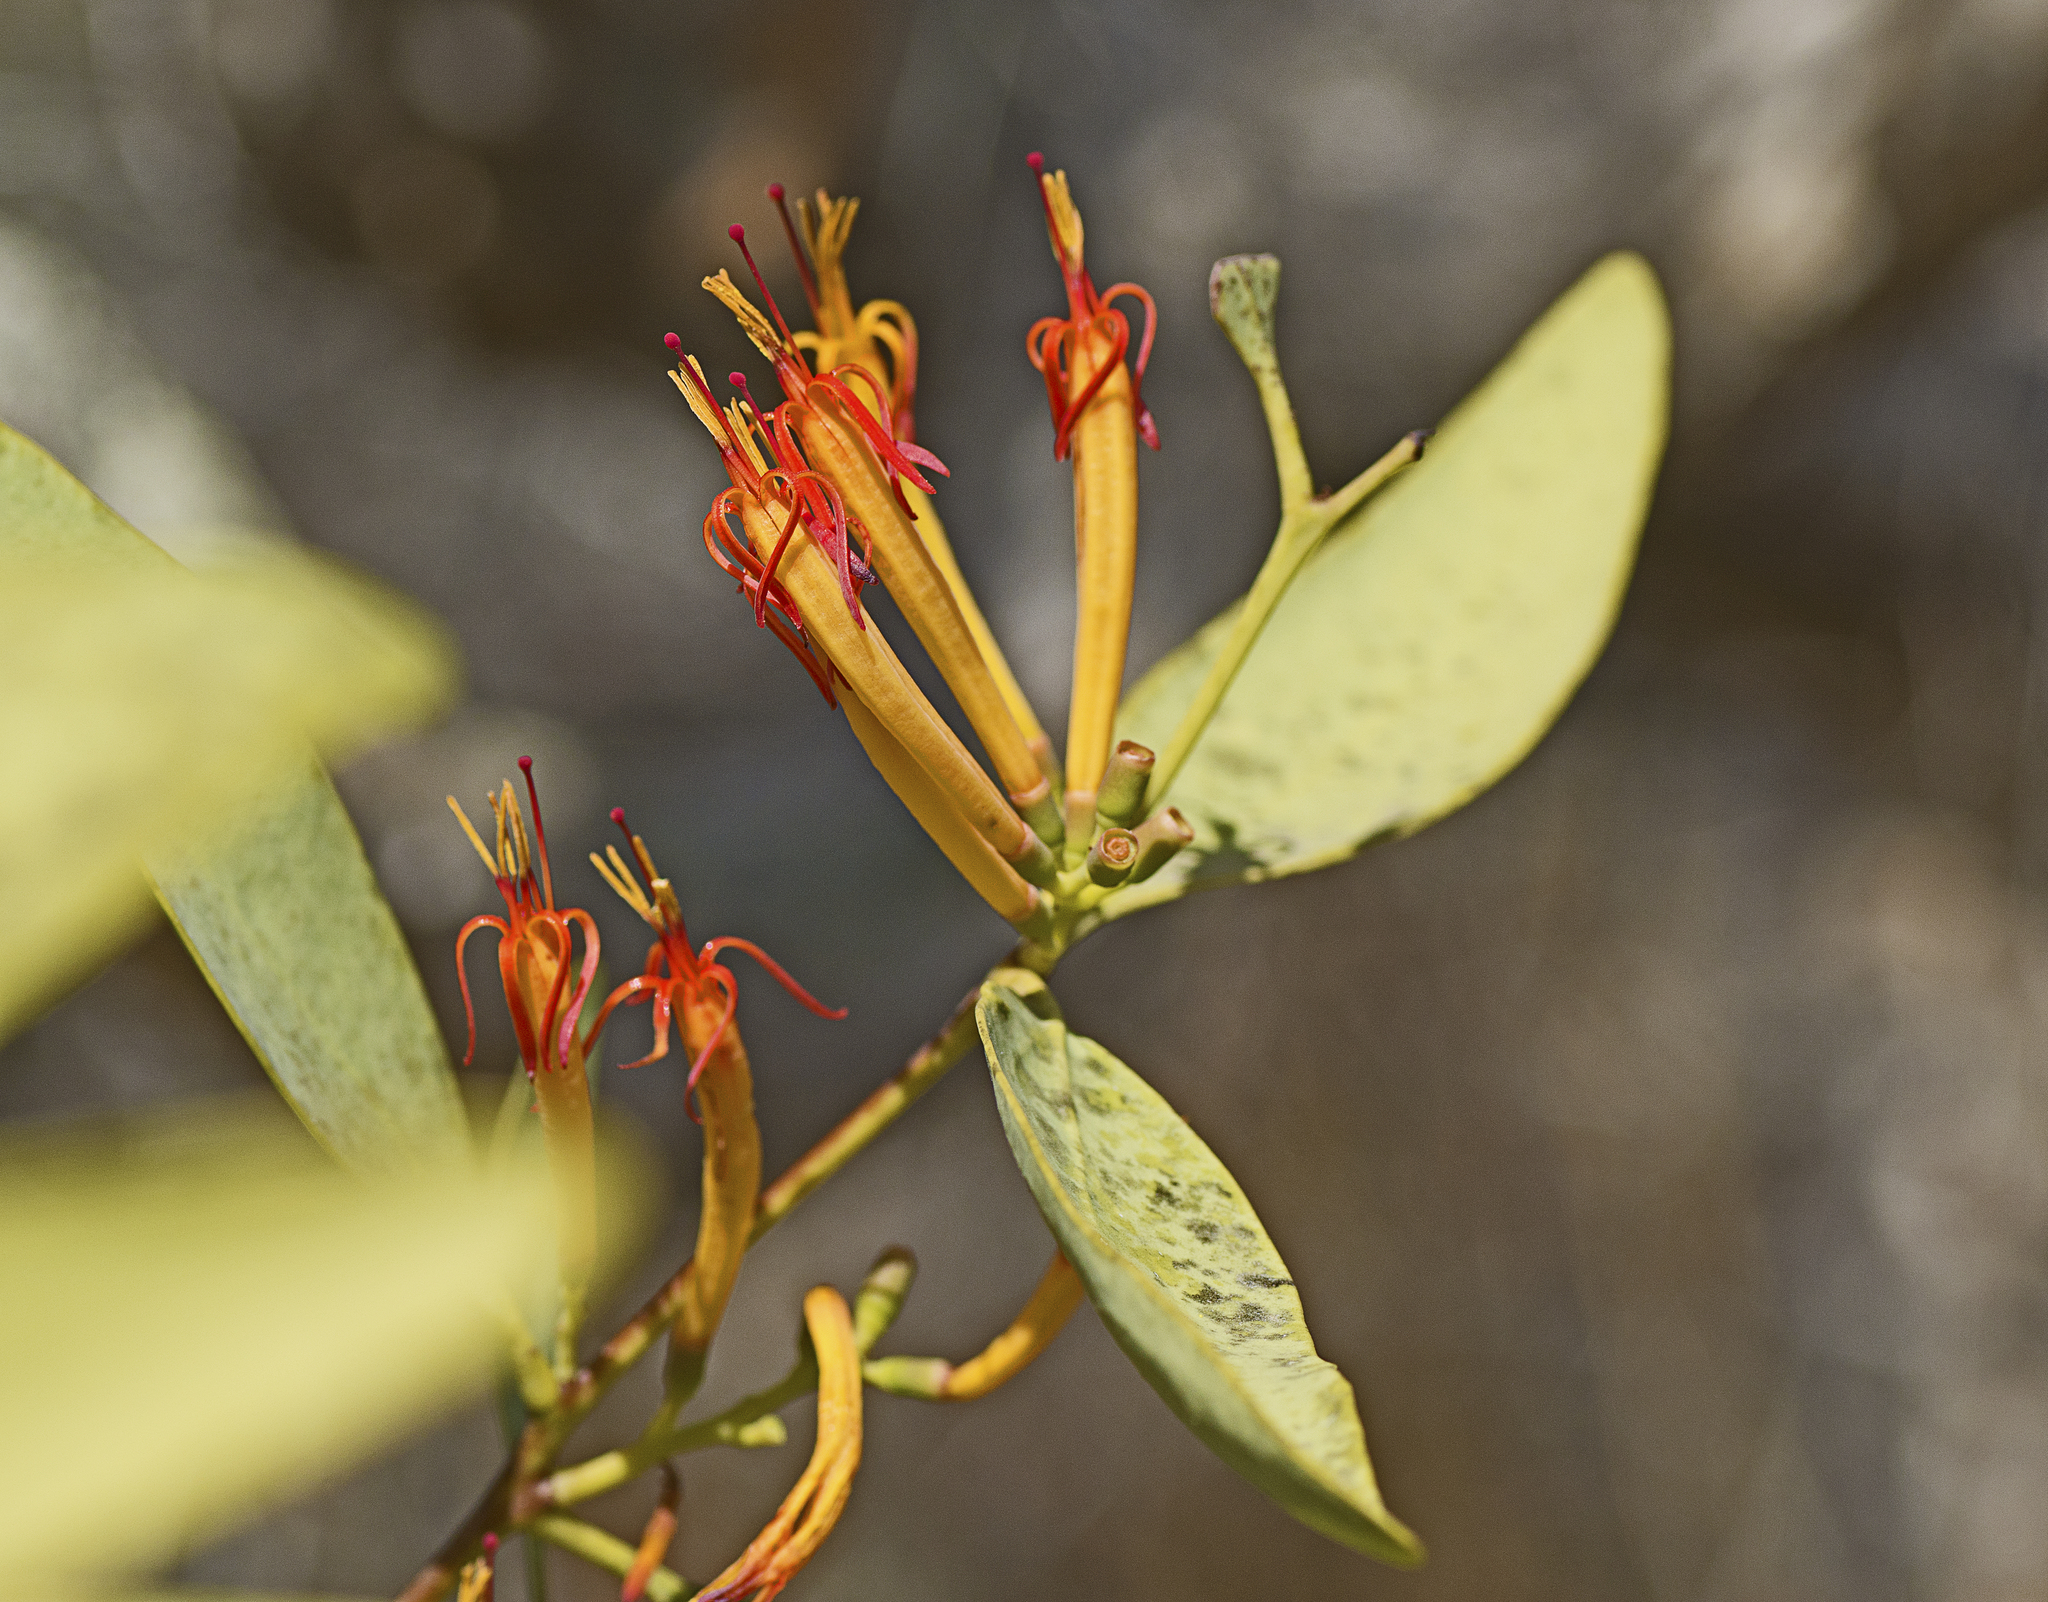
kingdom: Plantae
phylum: Tracheophyta
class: Magnoliopsida
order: Santalales
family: Loranthaceae
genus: Dendrophthoe
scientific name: Dendrophthoe glabrescens
